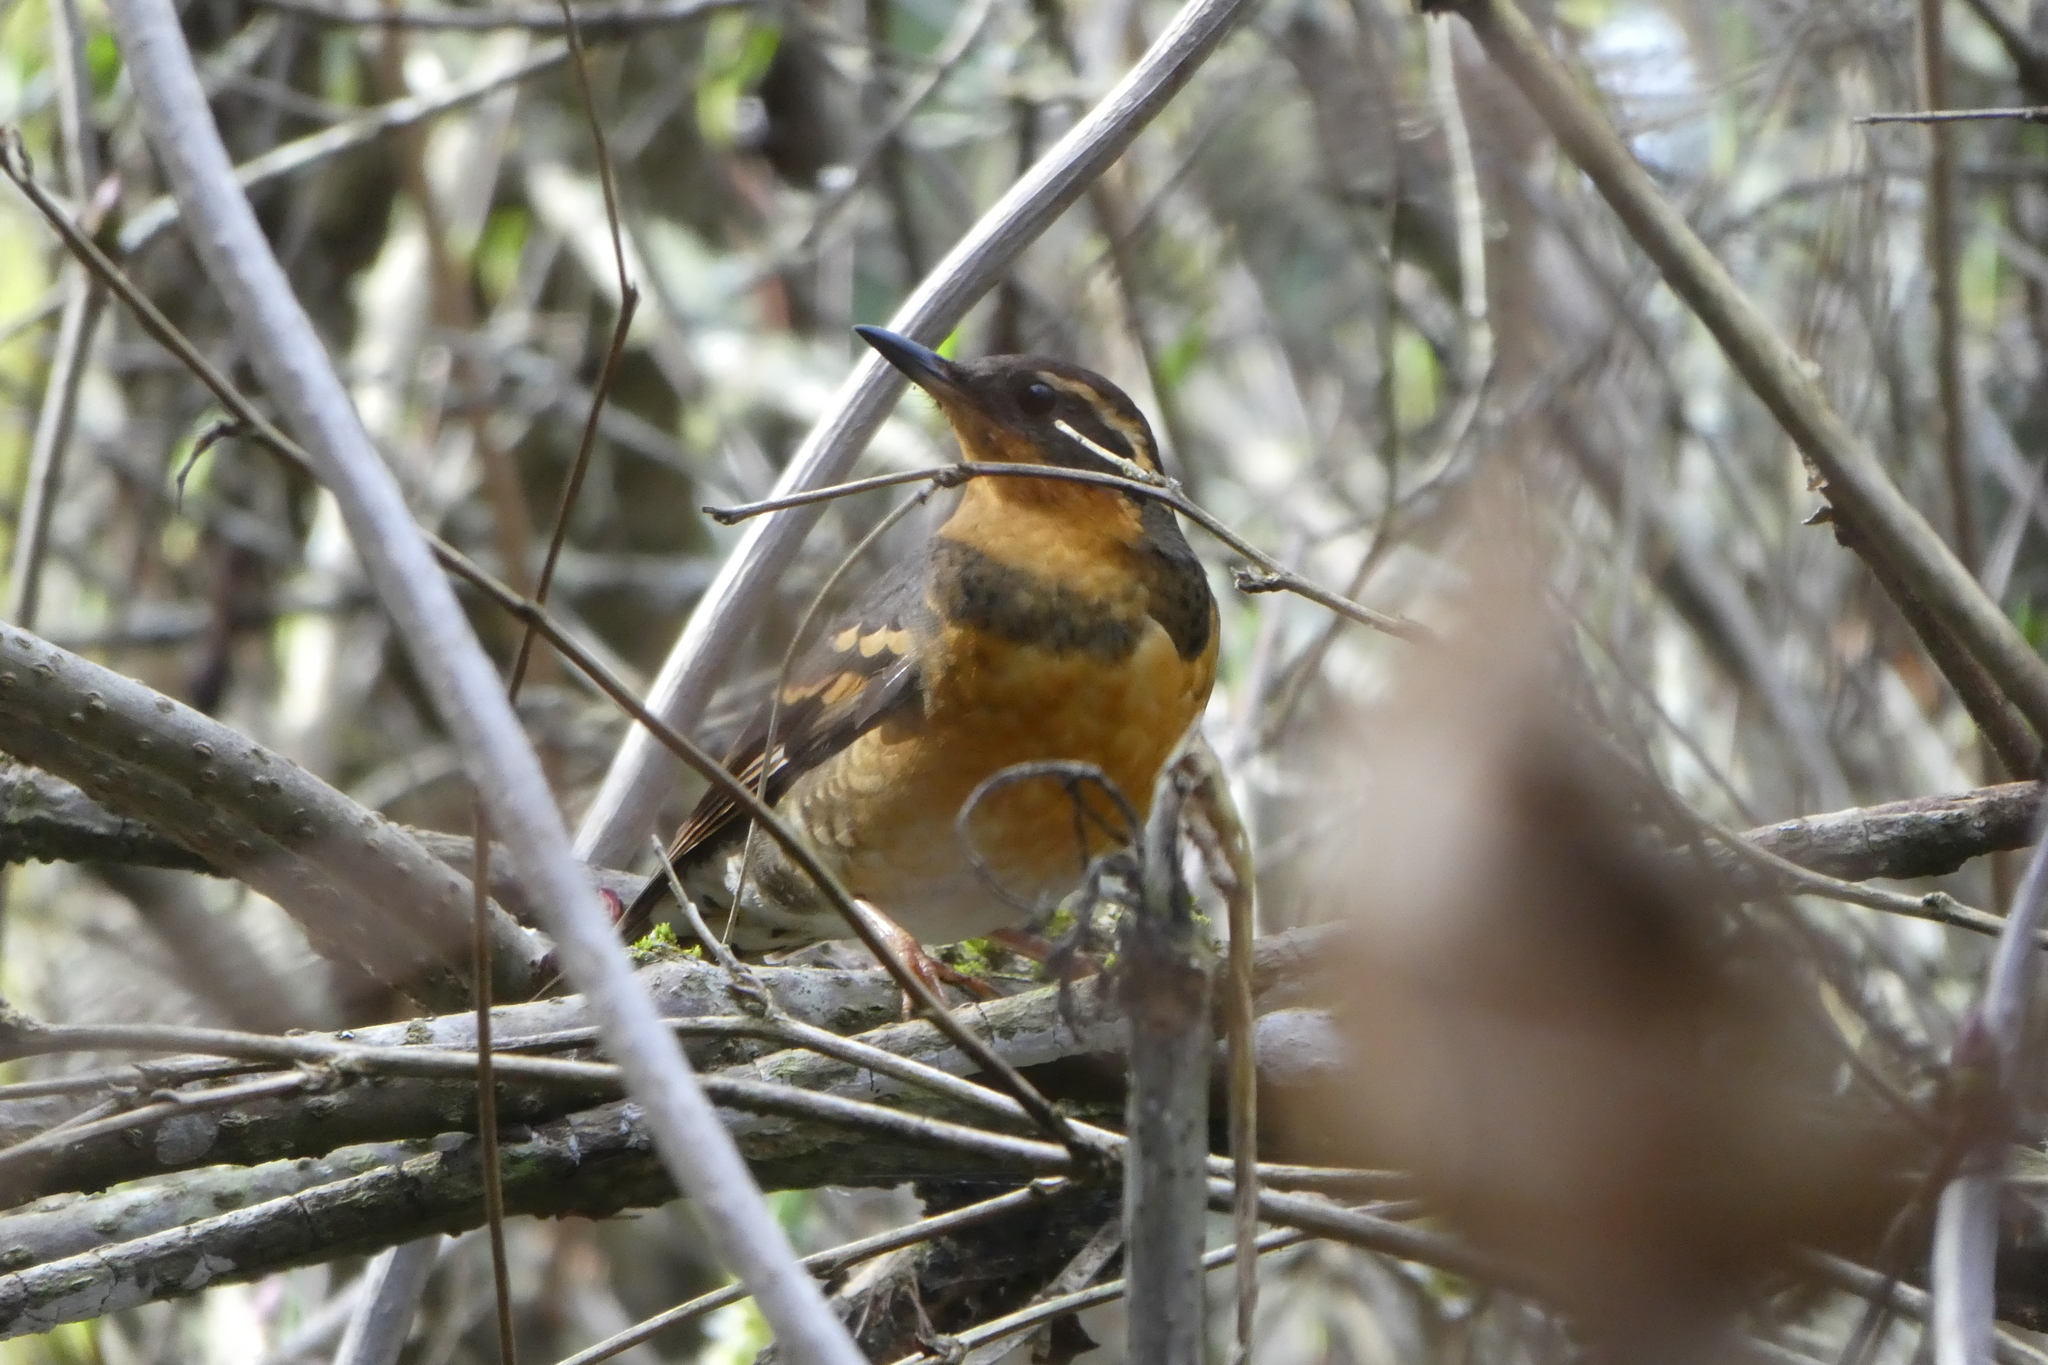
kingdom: Animalia
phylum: Chordata
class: Aves
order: Passeriformes
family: Turdidae
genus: Ixoreus
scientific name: Ixoreus naevius
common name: Varied thrush
